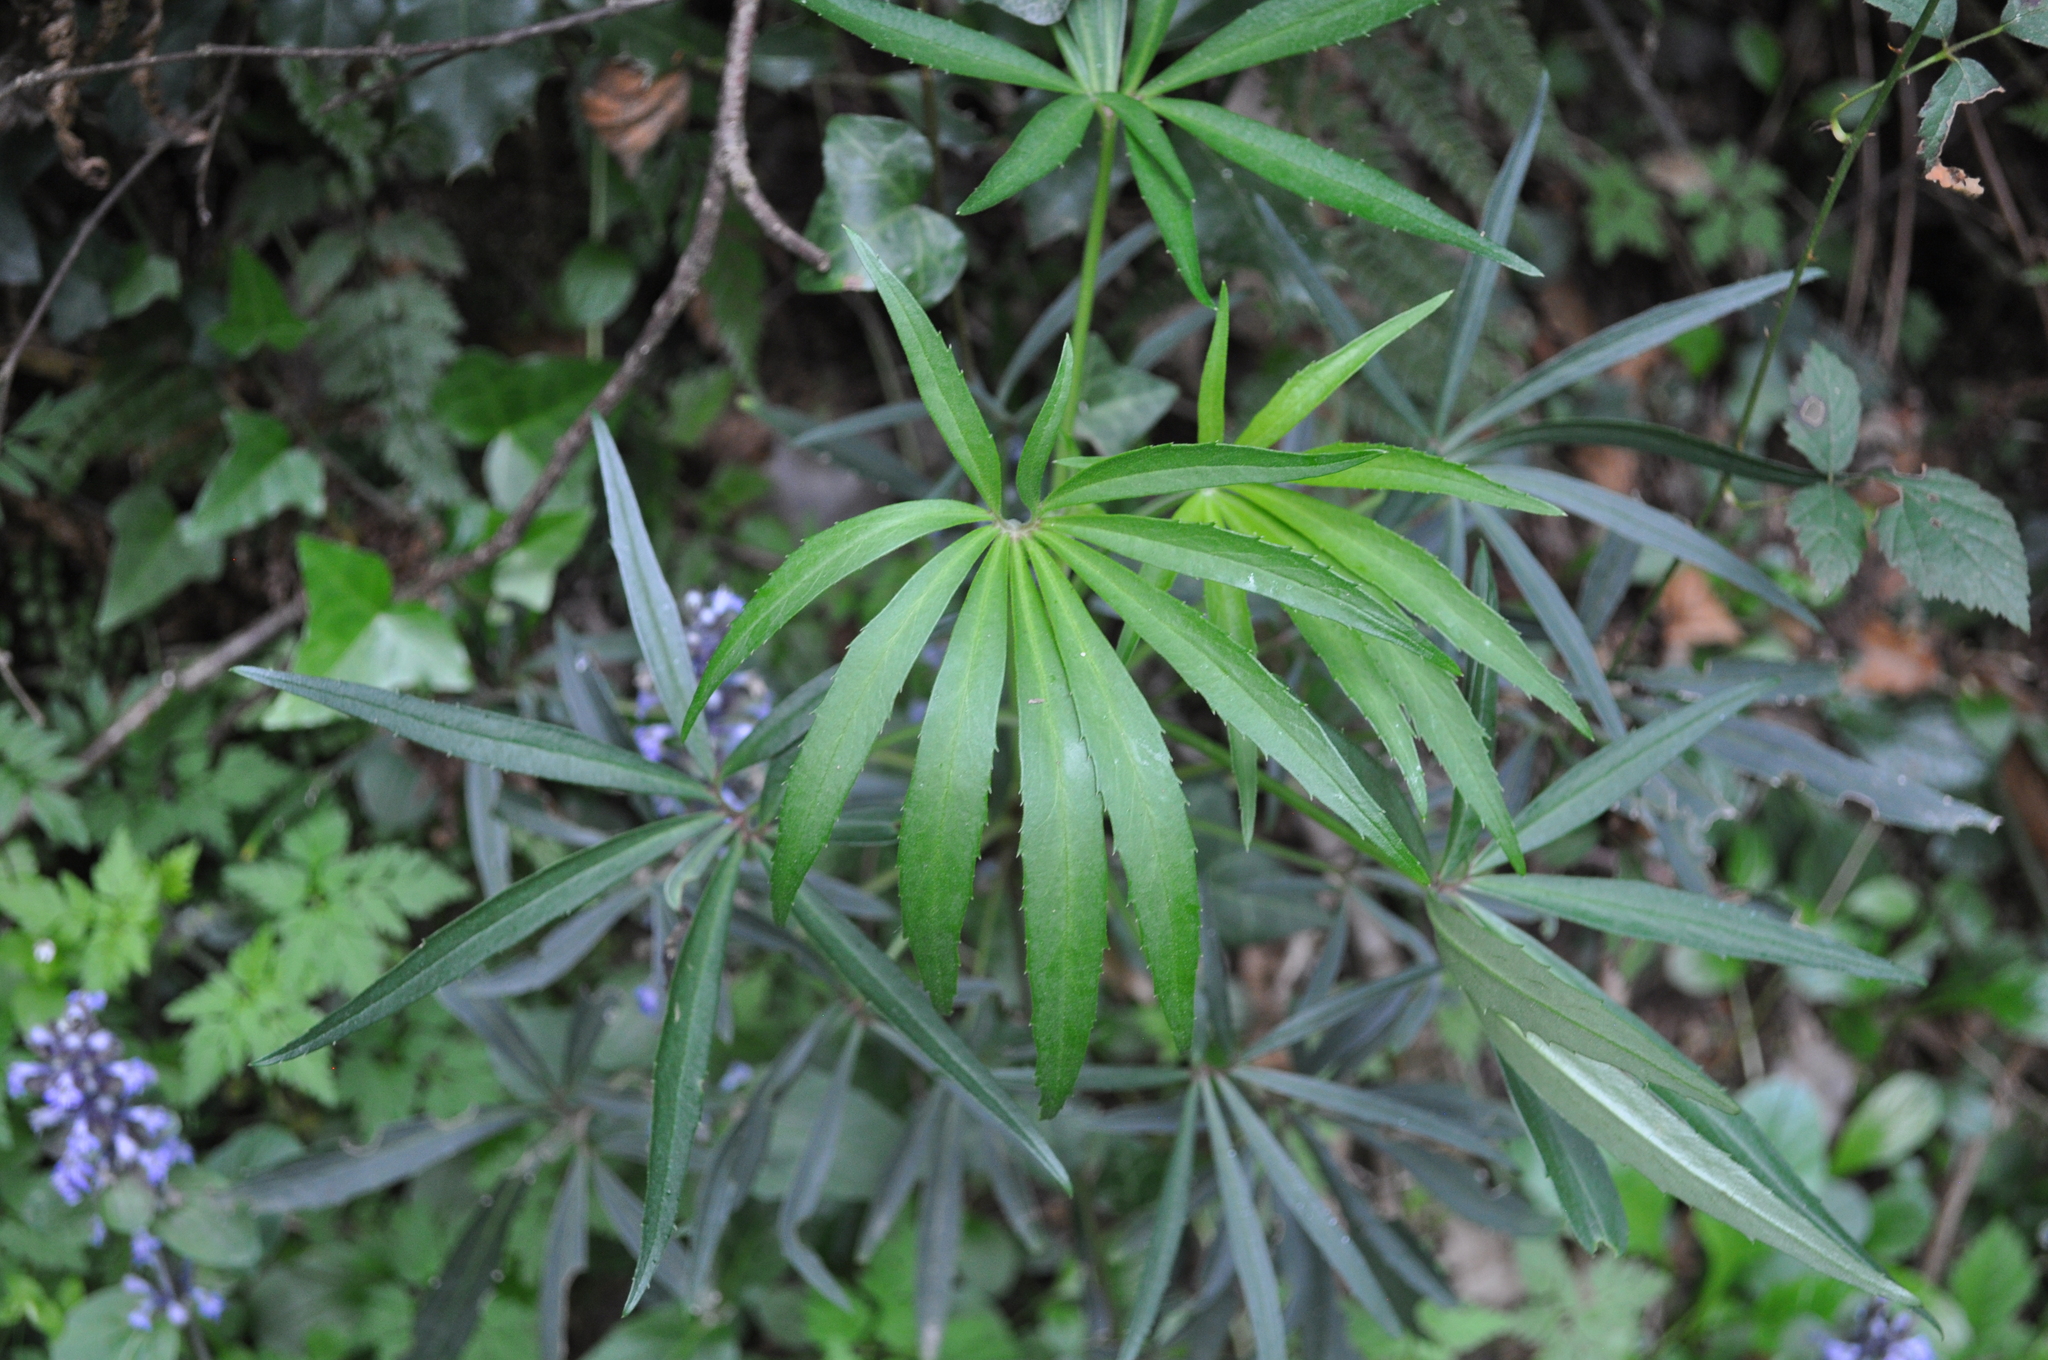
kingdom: Plantae
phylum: Tracheophyta
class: Magnoliopsida
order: Ranunculales
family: Ranunculaceae
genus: Helleborus
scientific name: Helleborus foetidus
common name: Stinking hellebore
